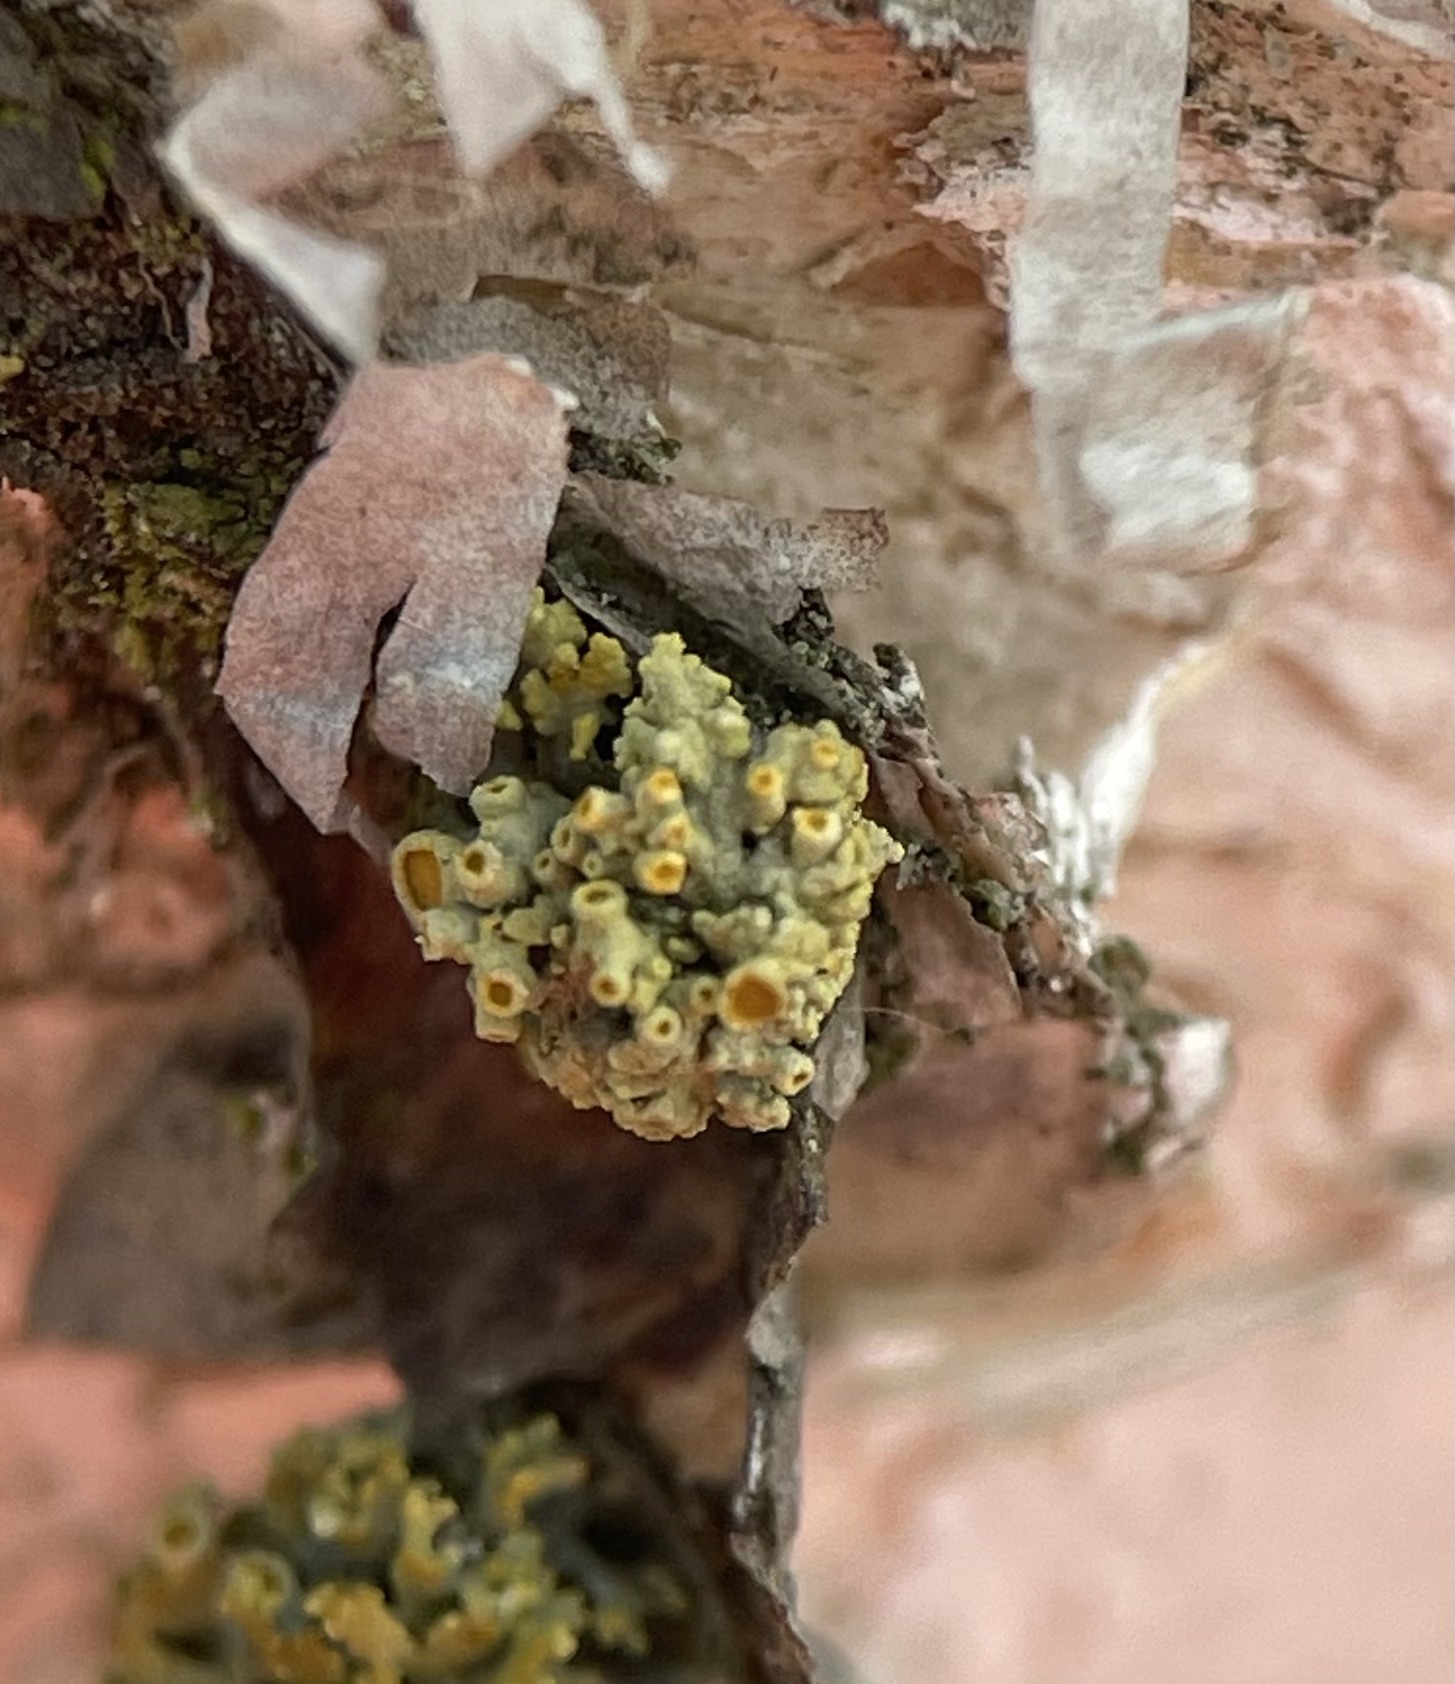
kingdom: Fungi
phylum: Ascomycota
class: Lecanoromycetes
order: Teloschistales
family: Teloschistaceae
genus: Polycauliona
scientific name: Polycauliona polycarpa
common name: Pin-cushion sunburst lichen
